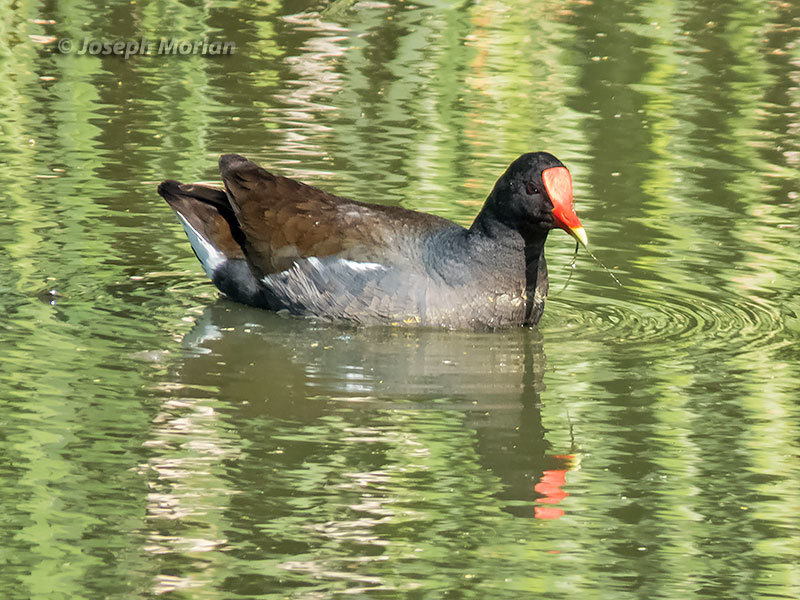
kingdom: Animalia
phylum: Chordata
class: Aves
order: Gruiformes
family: Rallidae
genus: Gallinula
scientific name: Gallinula chloropus
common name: Common moorhen
